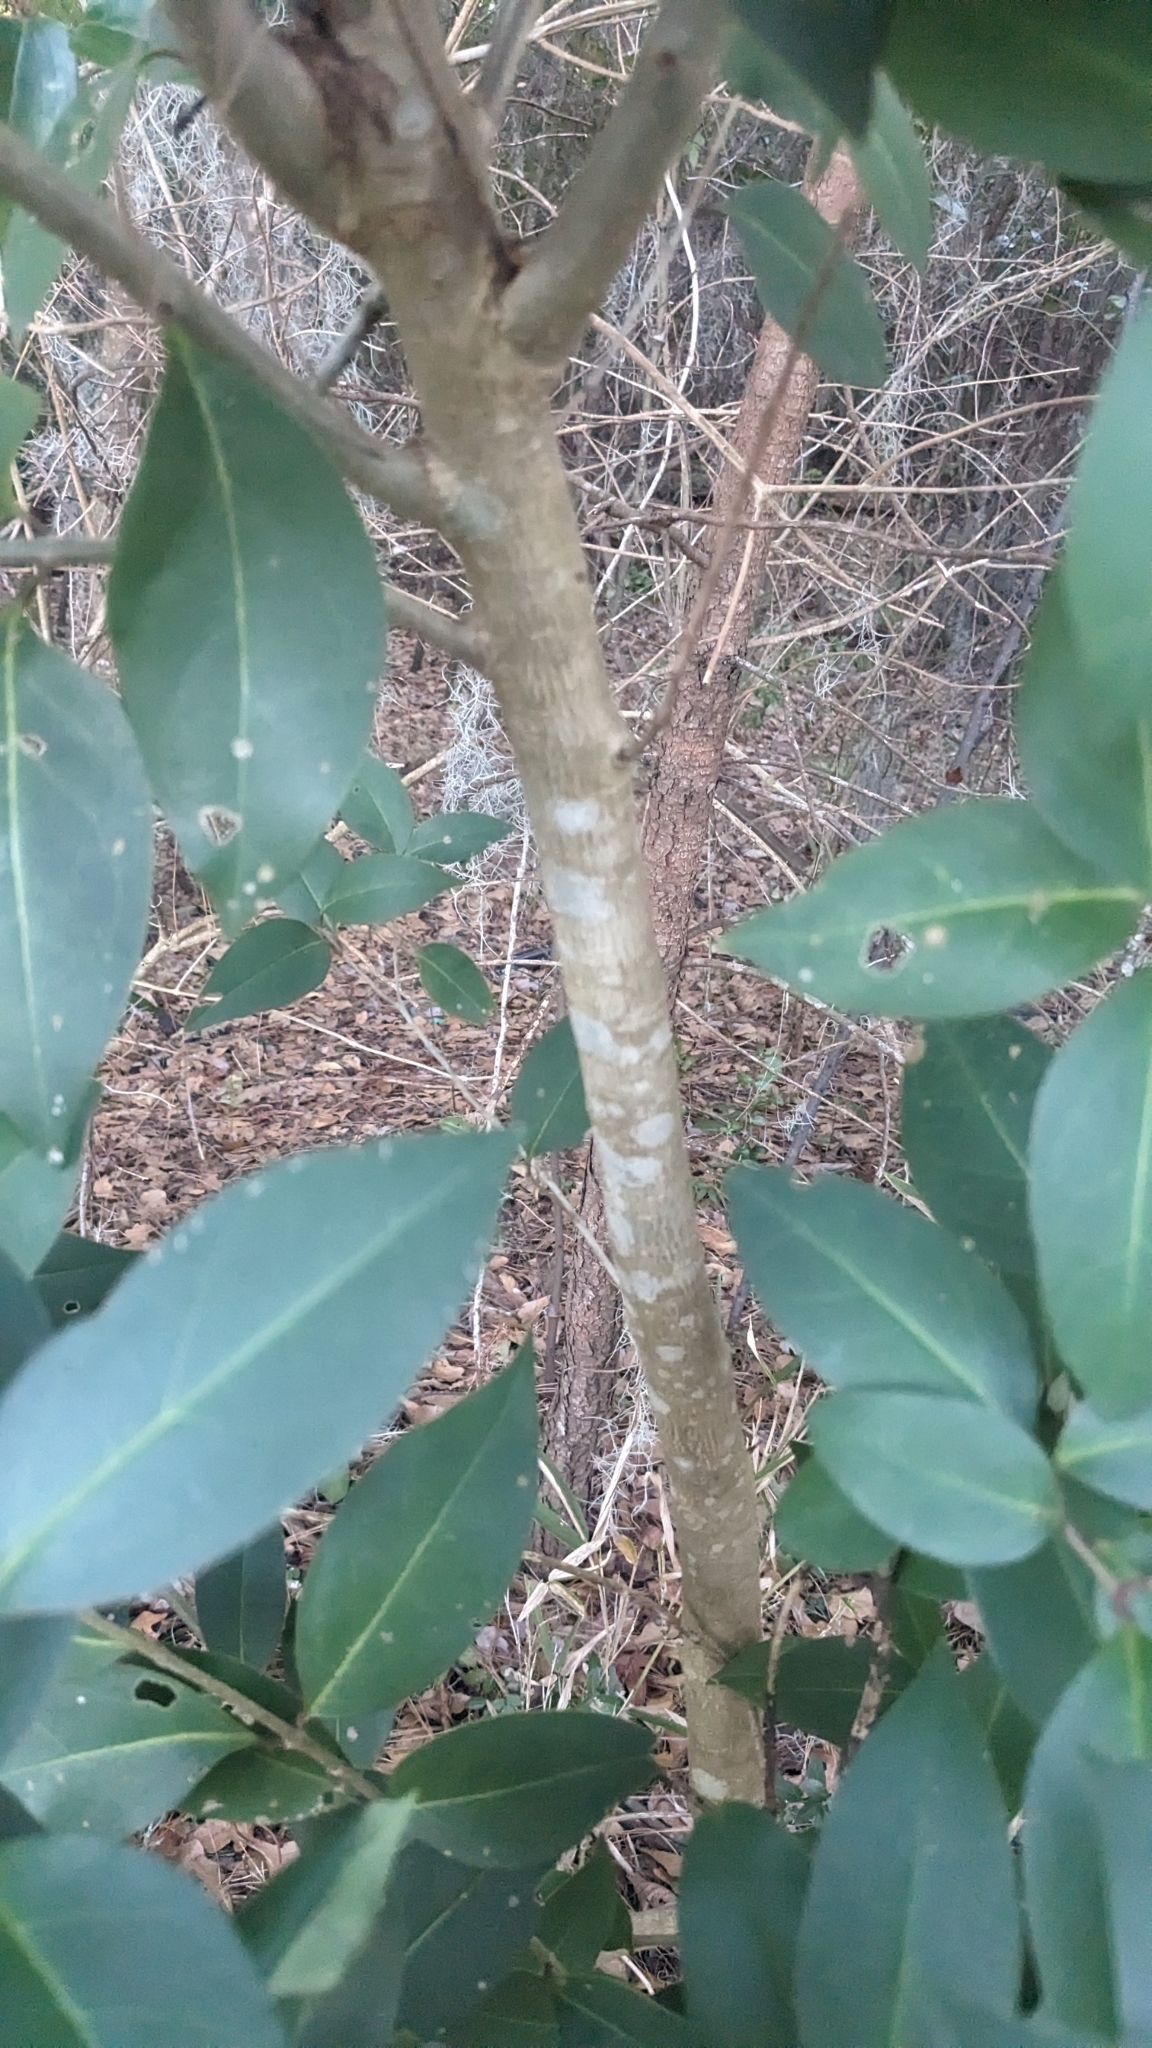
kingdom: Plantae
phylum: Tracheophyta
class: Magnoliopsida
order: Lamiales
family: Oleaceae
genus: Ligustrum
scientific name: Ligustrum lucidum
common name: Glossy privet
